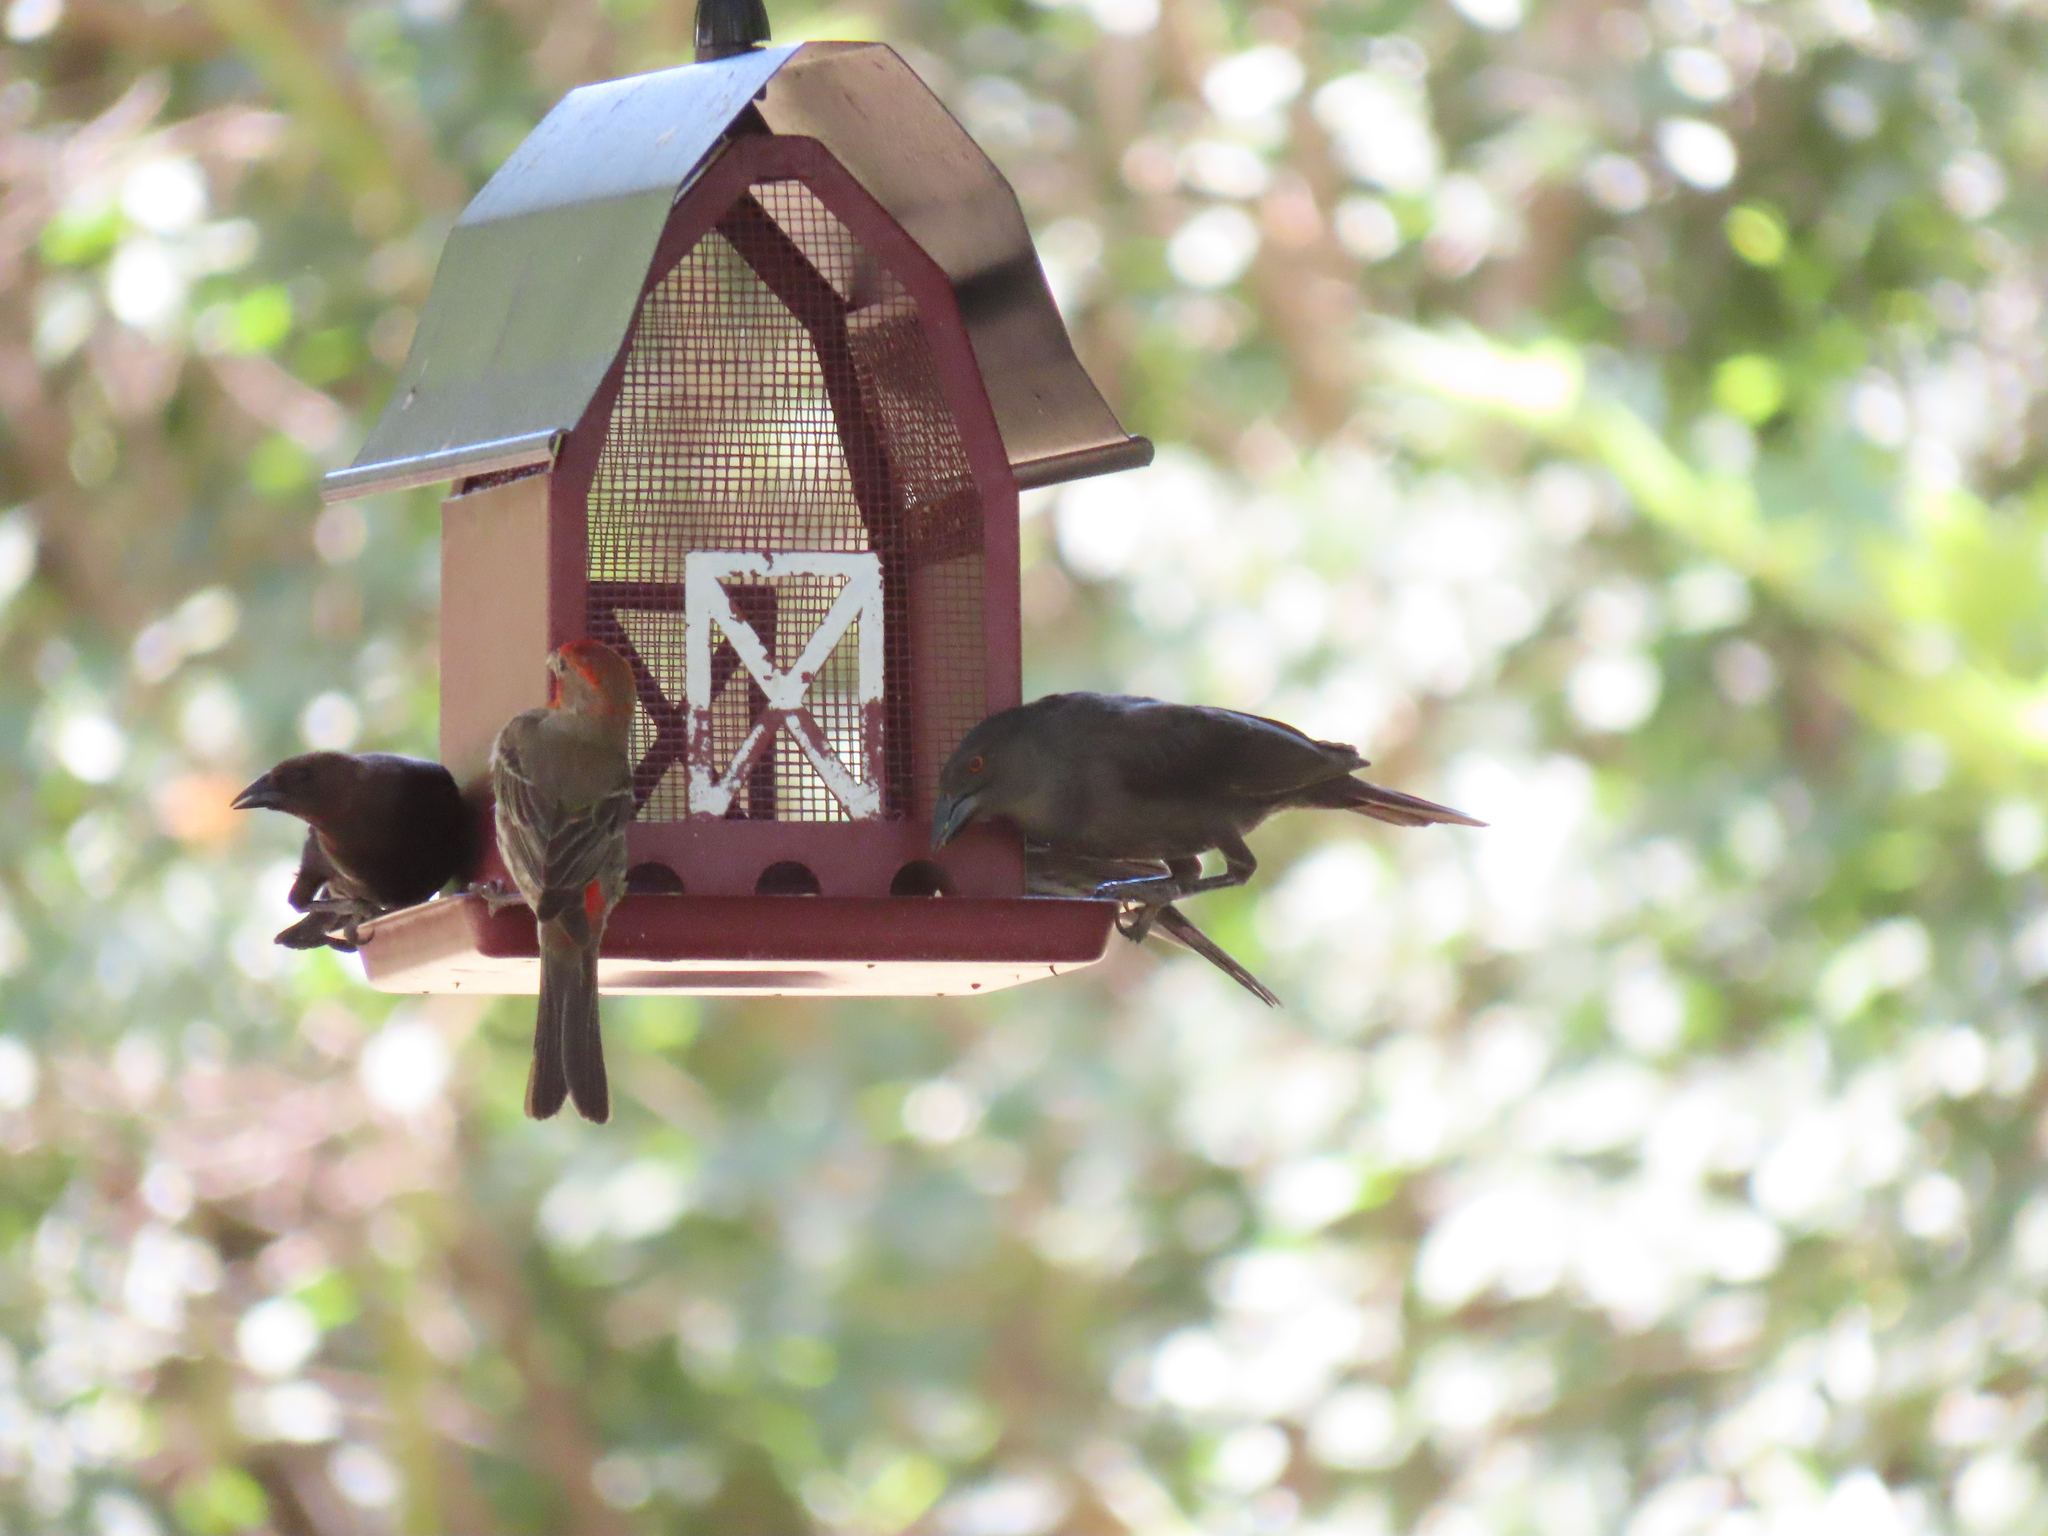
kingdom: Animalia
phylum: Chordata
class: Aves
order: Passeriformes
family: Icteridae
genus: Molothrus
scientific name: Molothrus aeneus
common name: Bronzed cowbird
